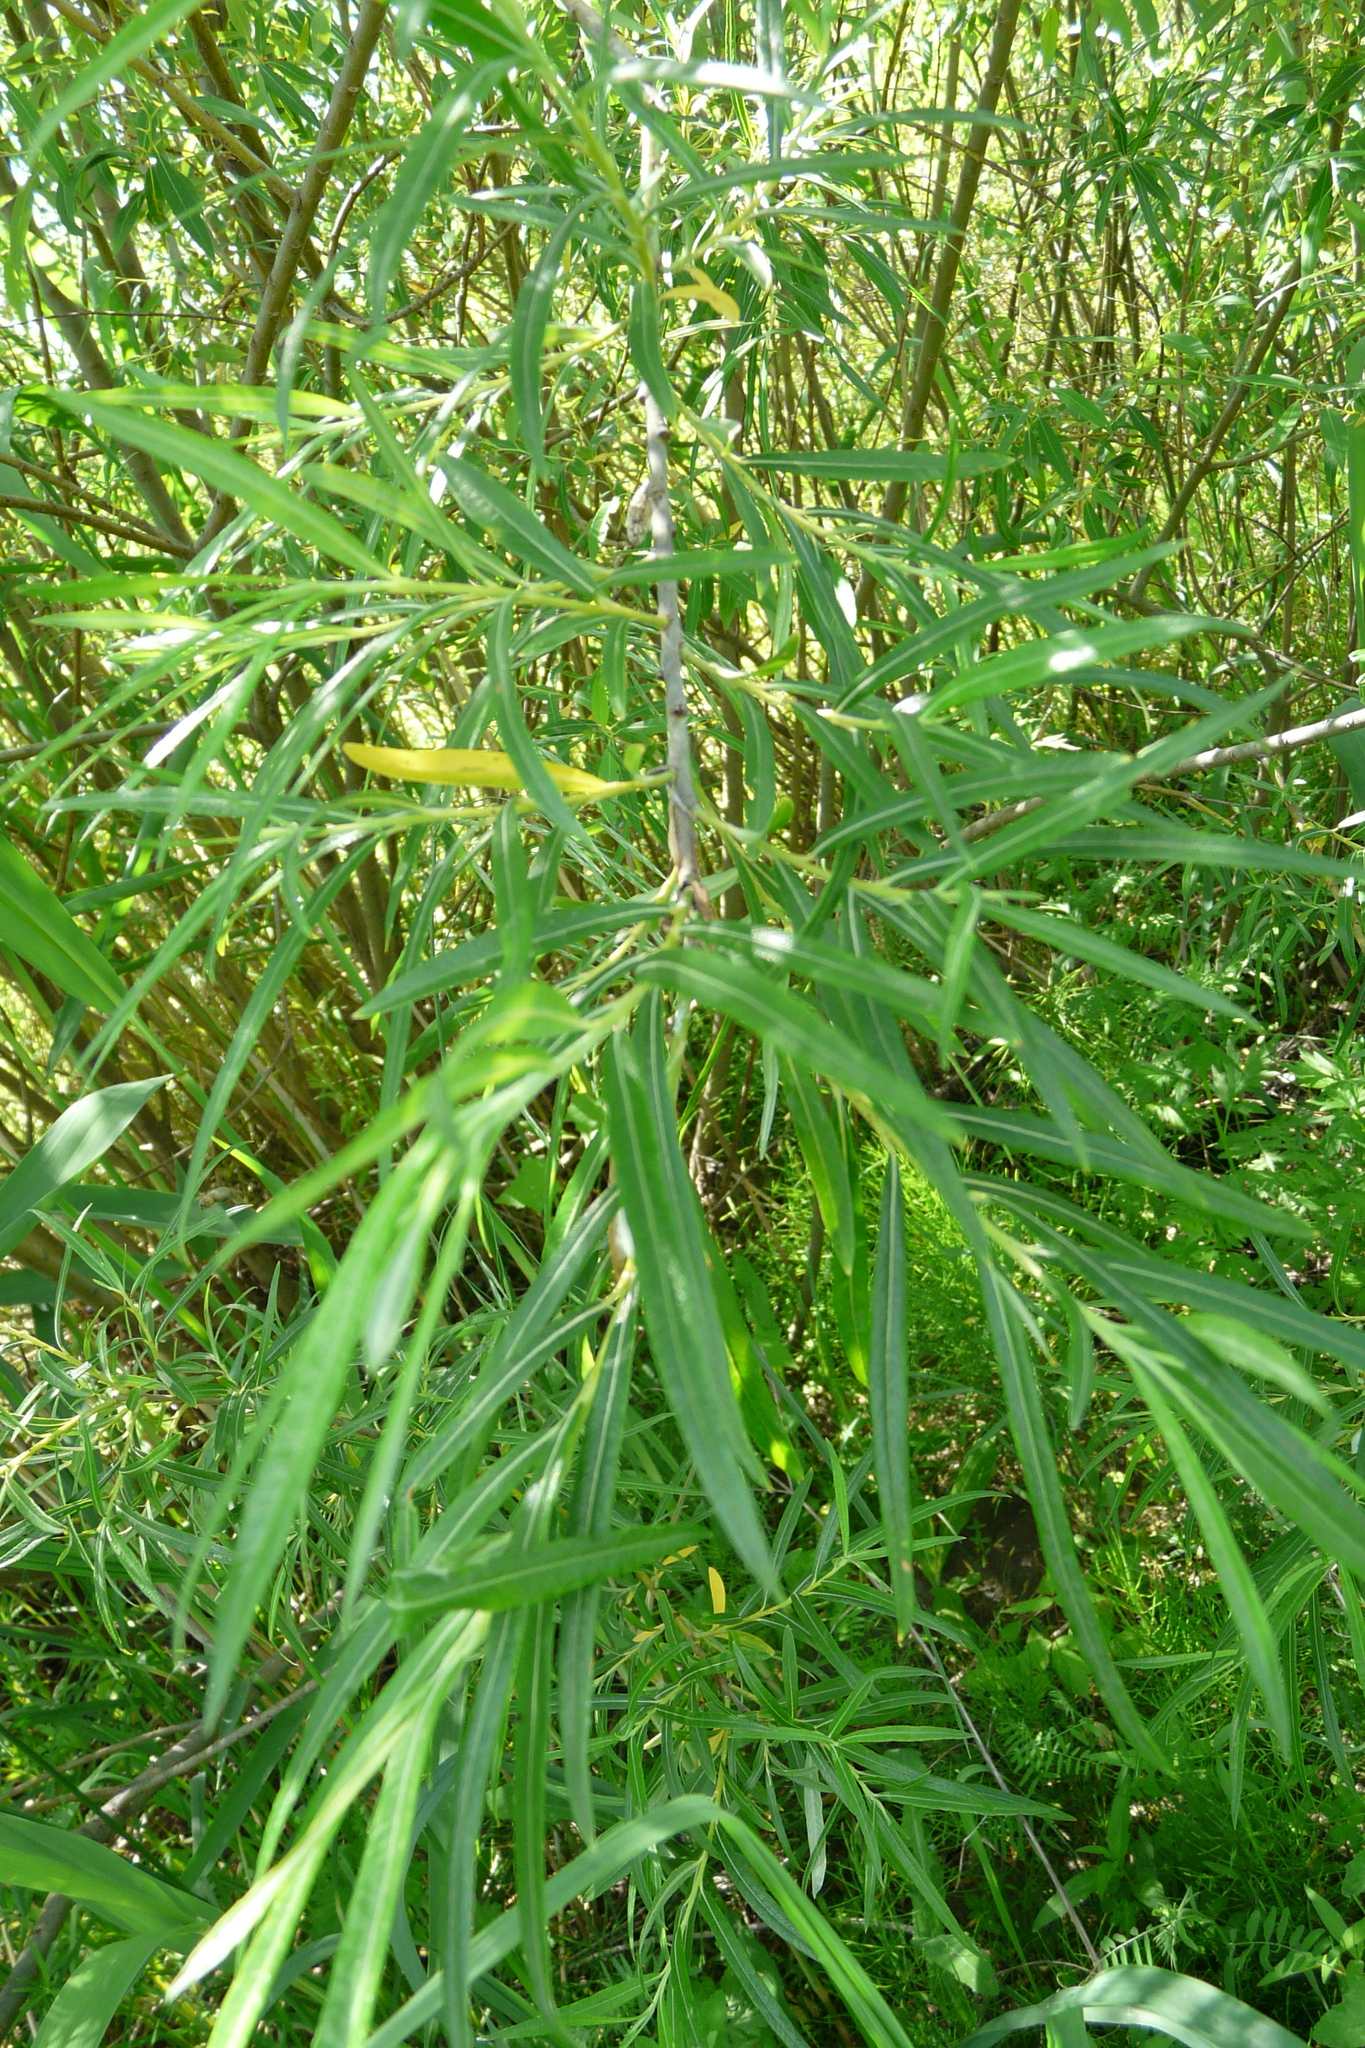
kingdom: Plantae
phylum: Tracheophyta
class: Magnoliopsida
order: Malpighiales
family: Salicaceae
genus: Salix
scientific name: Salix viminalis
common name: Osier
